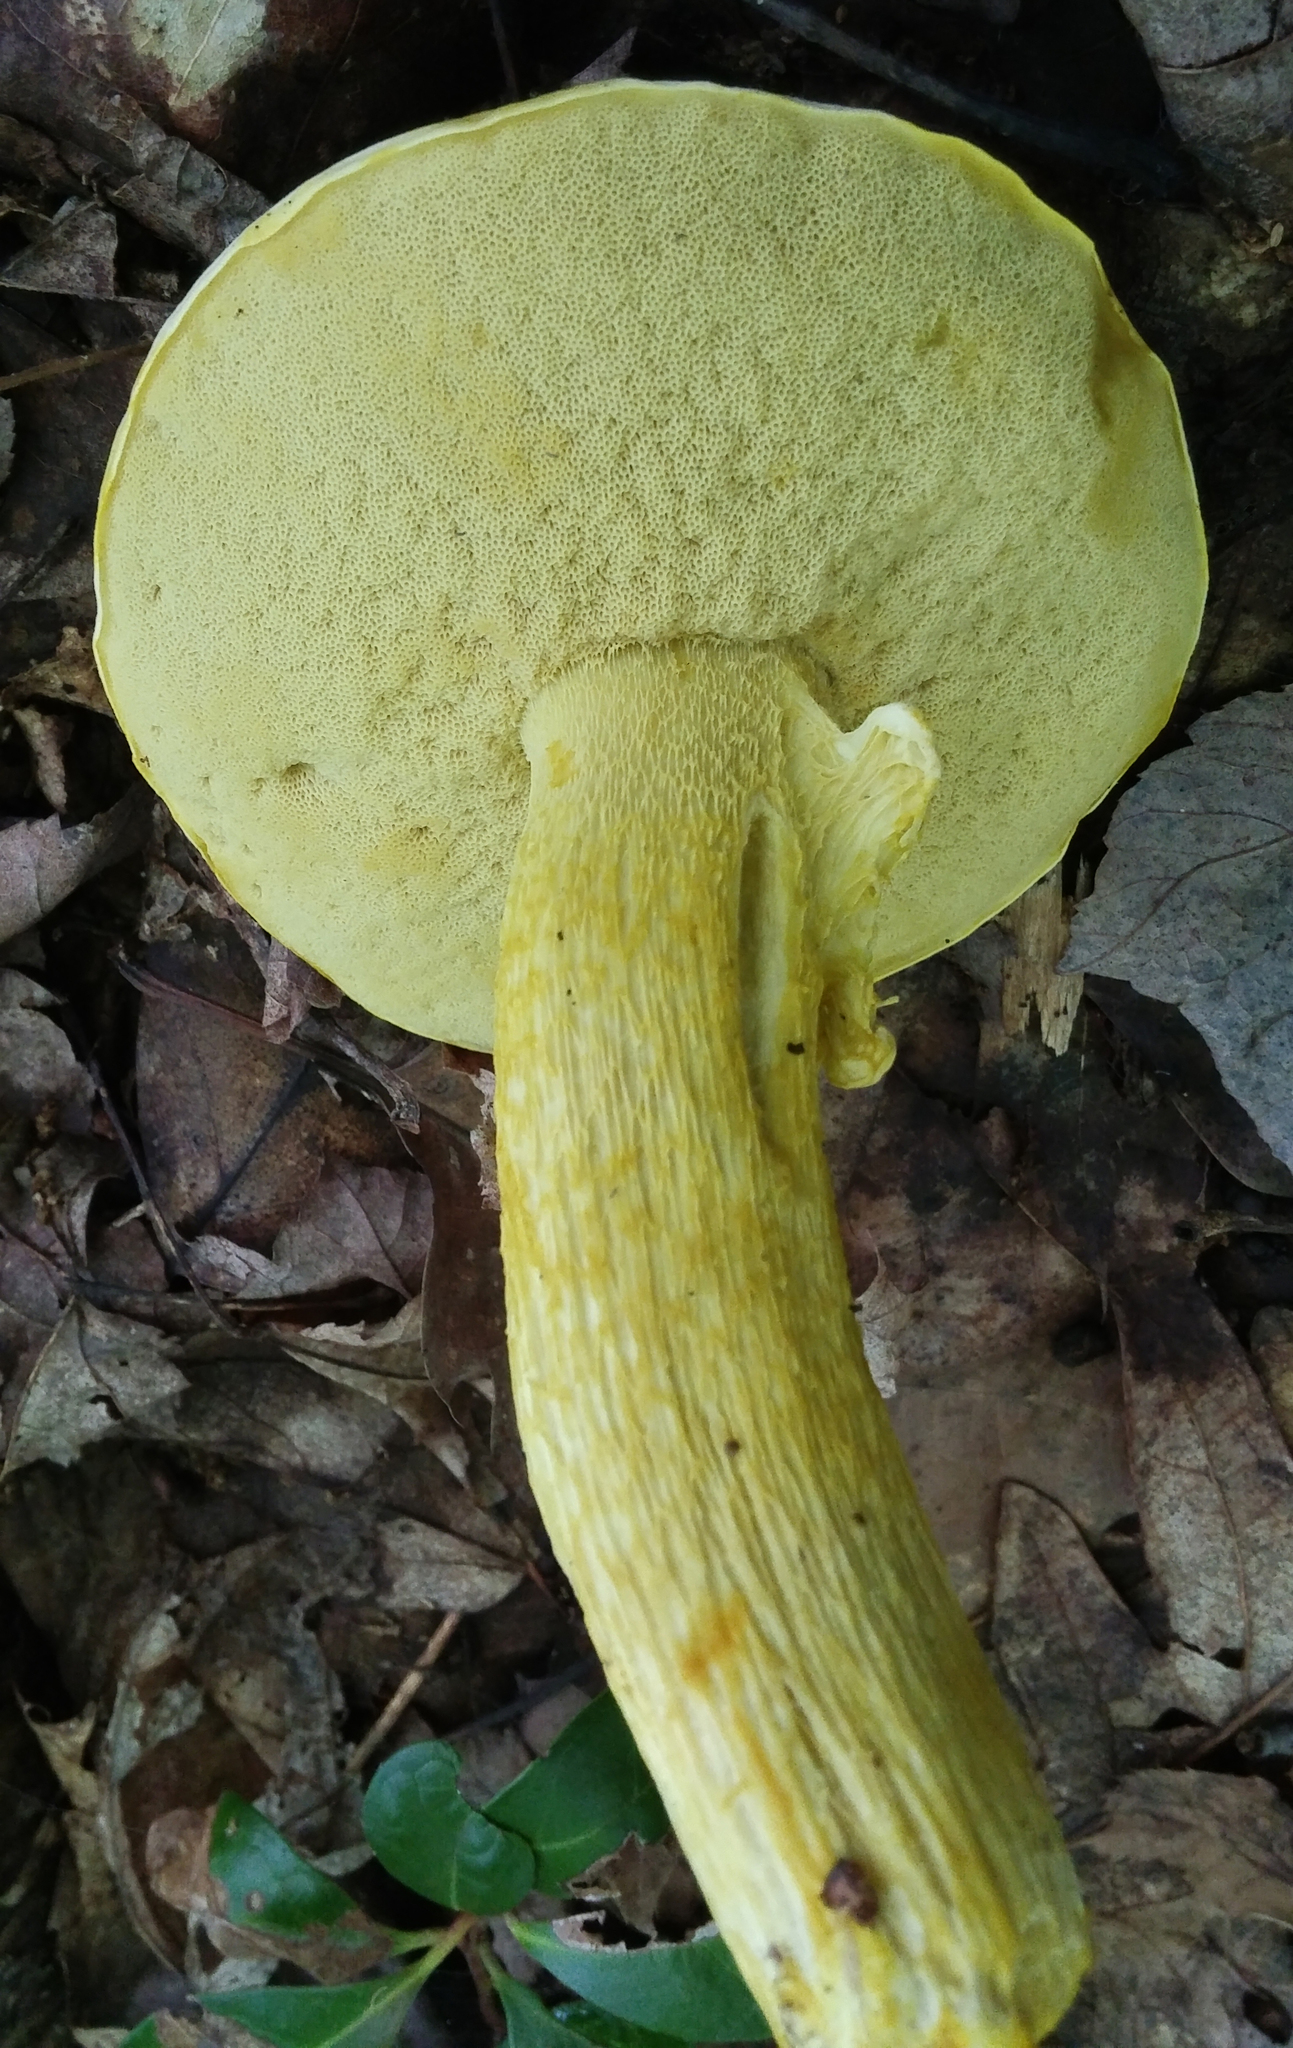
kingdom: Fungi
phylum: Basidiomycota
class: Agaricomycetes
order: Boletales
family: Boletaceae
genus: Retiboletus
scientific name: Retiboletus ornatipes
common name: Ornate-stalked bolete
